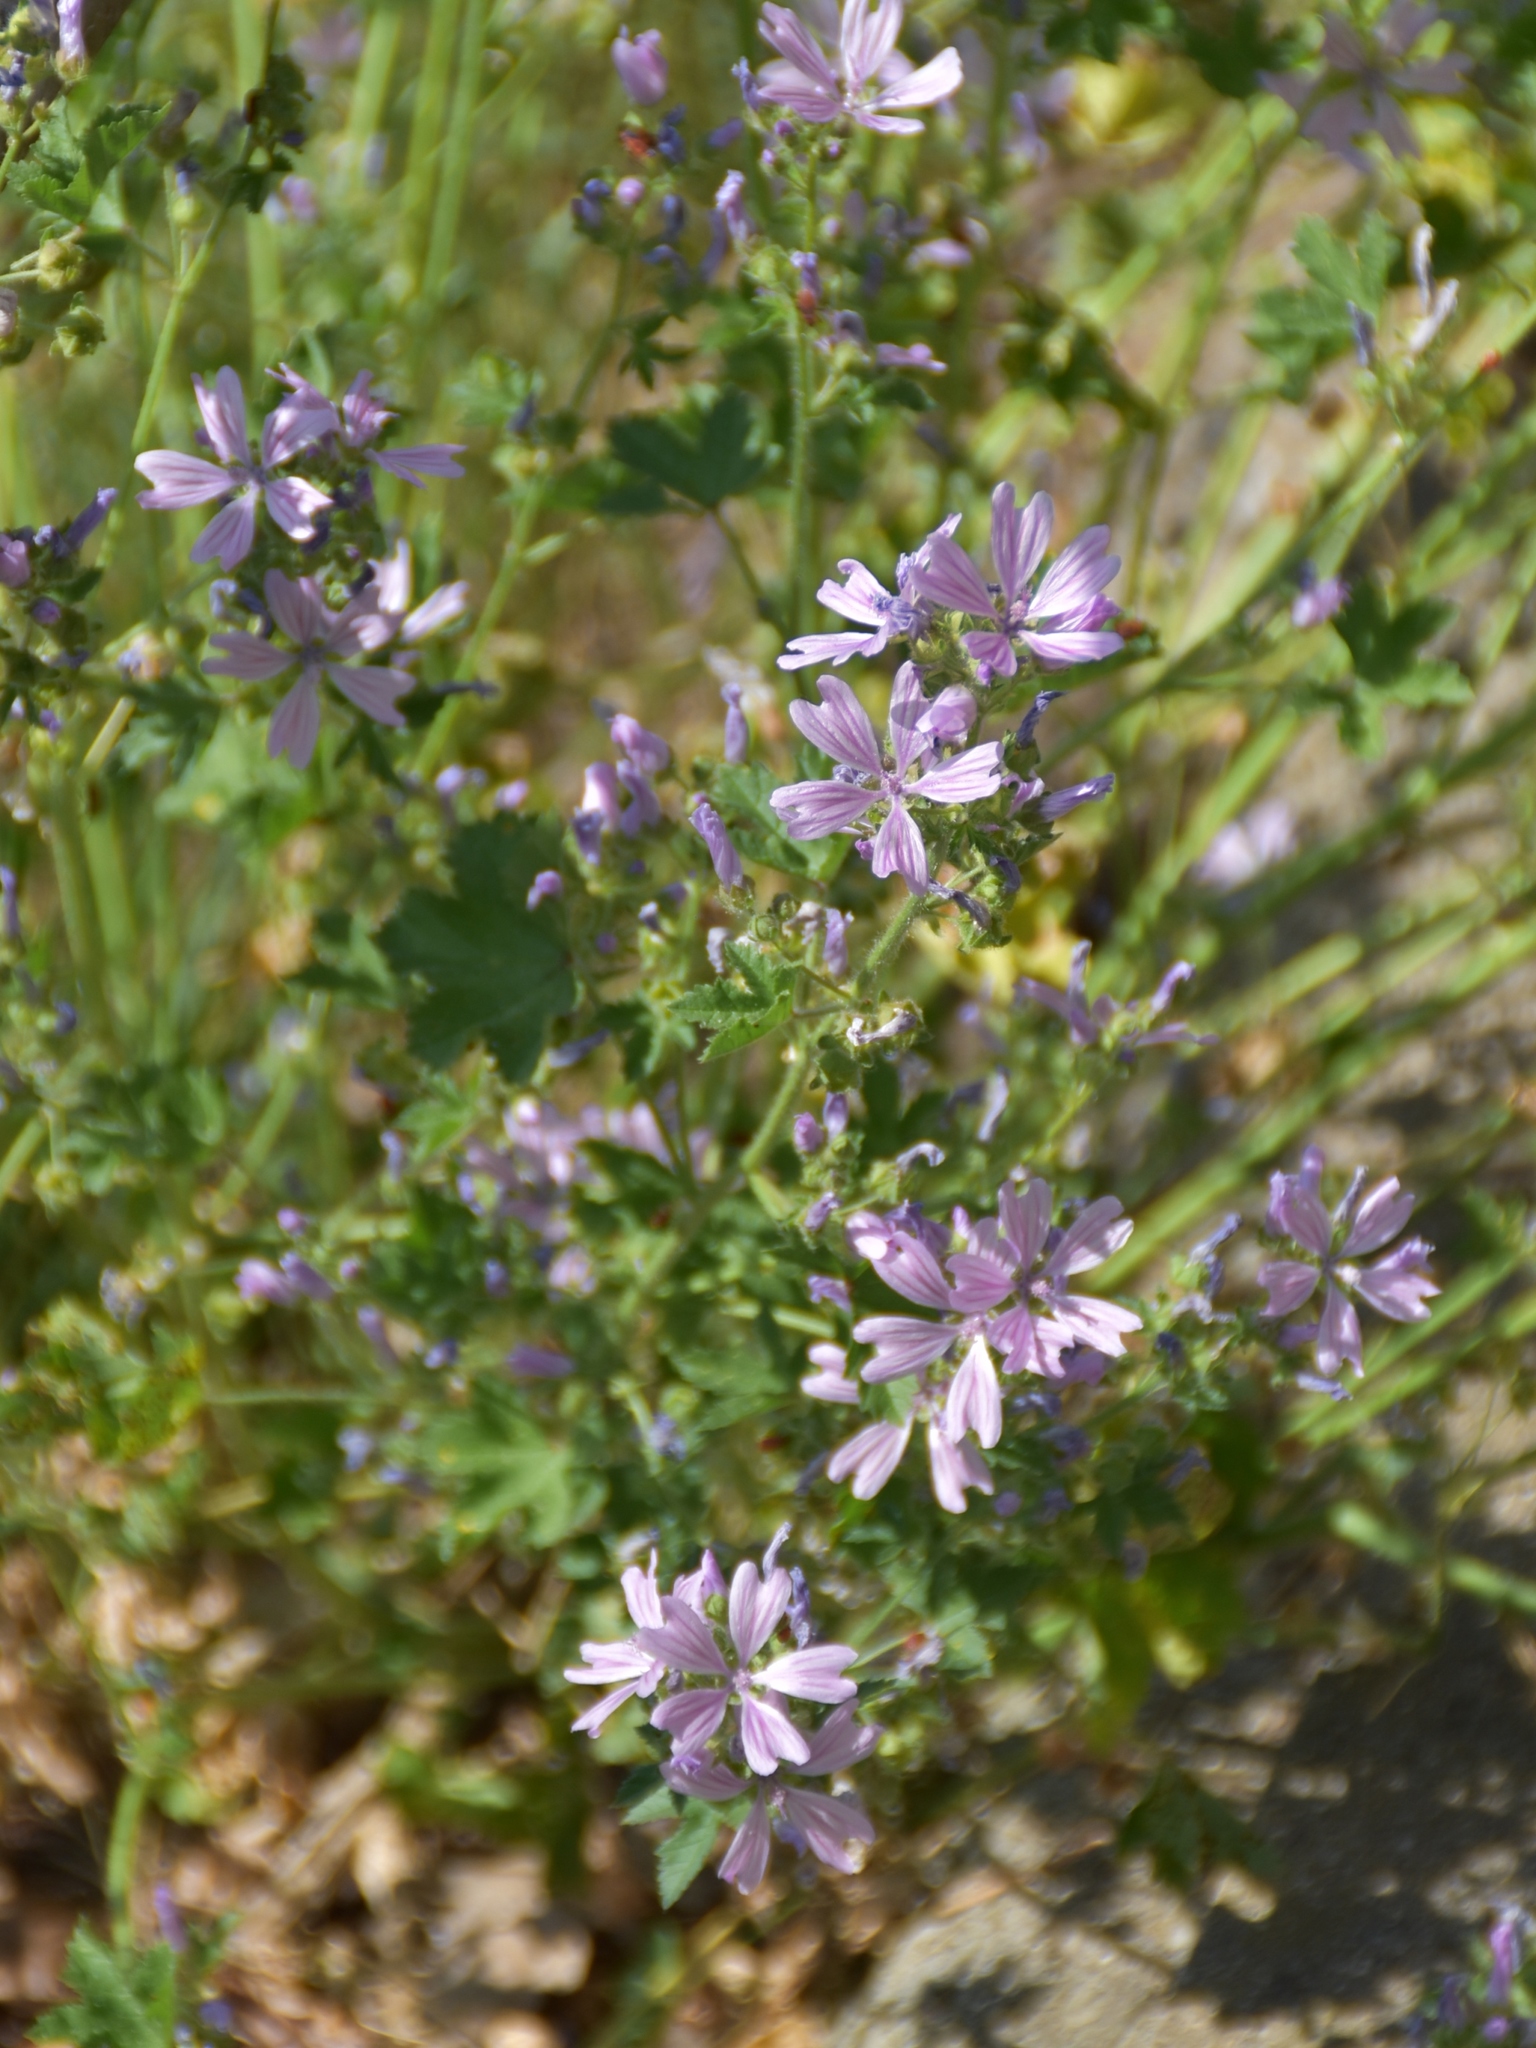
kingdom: Plantae
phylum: Tracheophyta
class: Magnoliopsida
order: Malvales
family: Malvaceae
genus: Malva
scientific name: Malva sylvestris
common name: Common mallow
